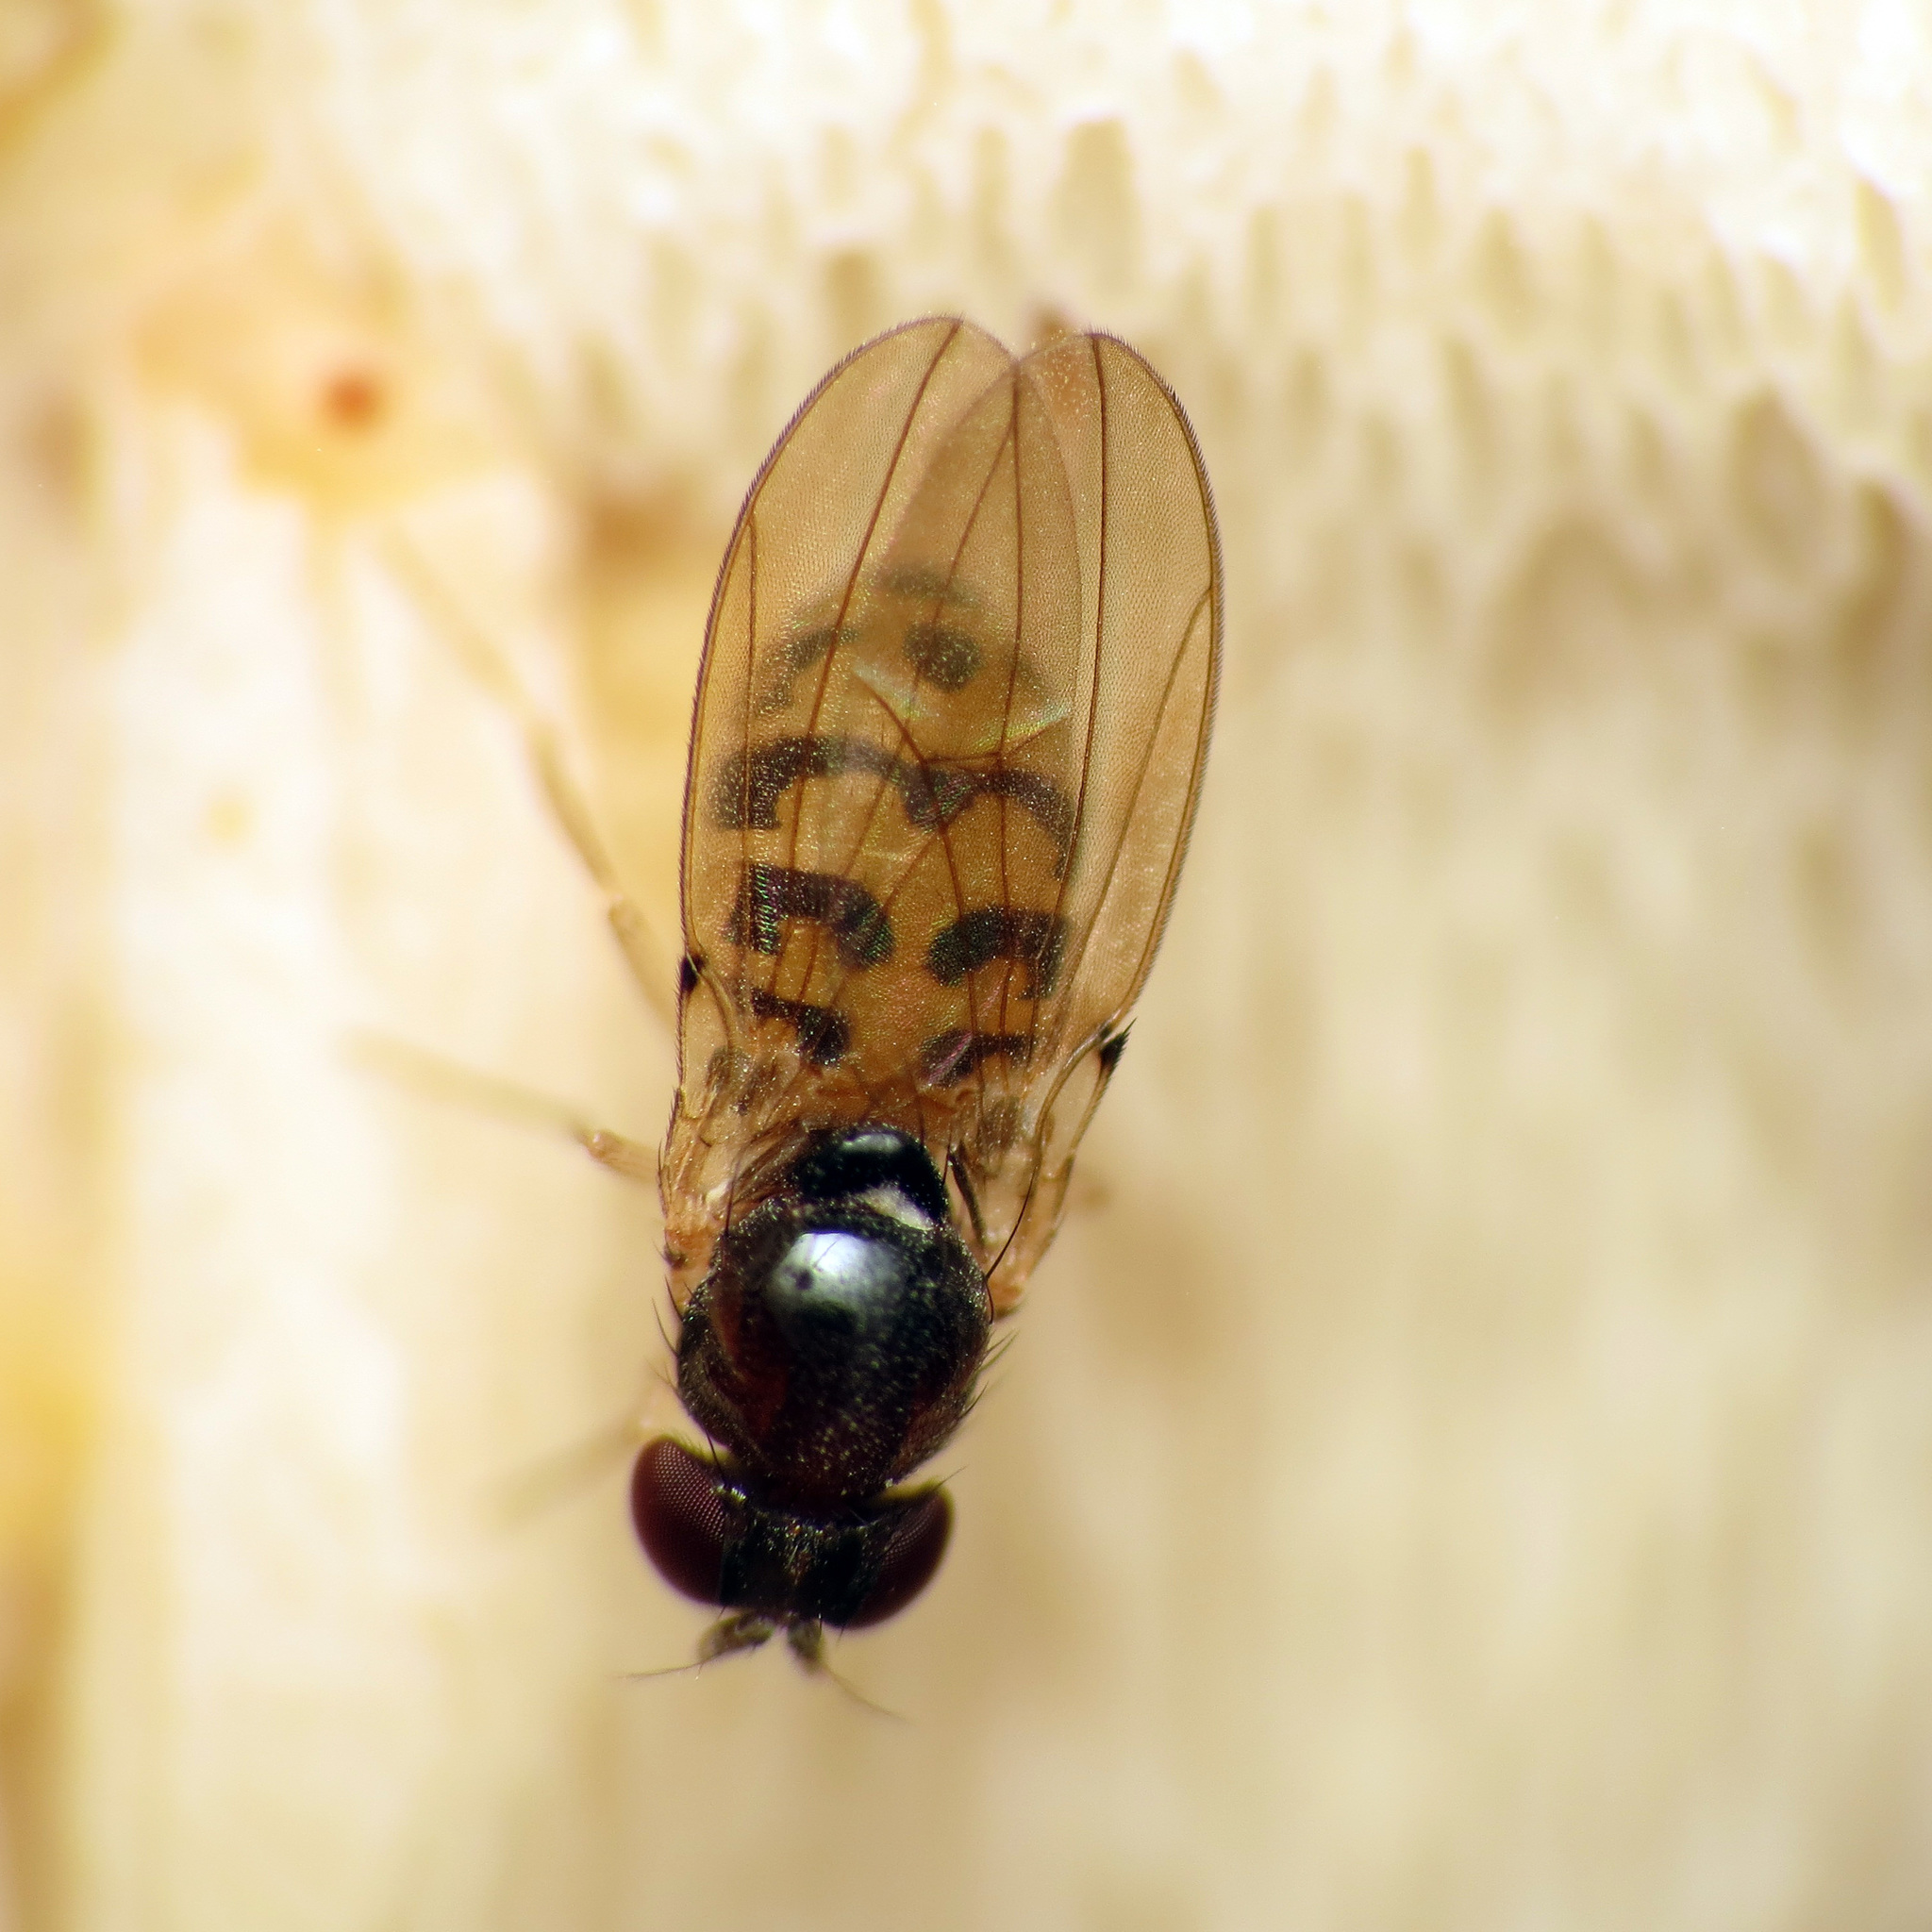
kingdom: Animalia
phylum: Arthropoda
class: Insecta
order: Diptera
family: Drosophilidae
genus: Mycodrosophila
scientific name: Mycodrosophila claytonae
